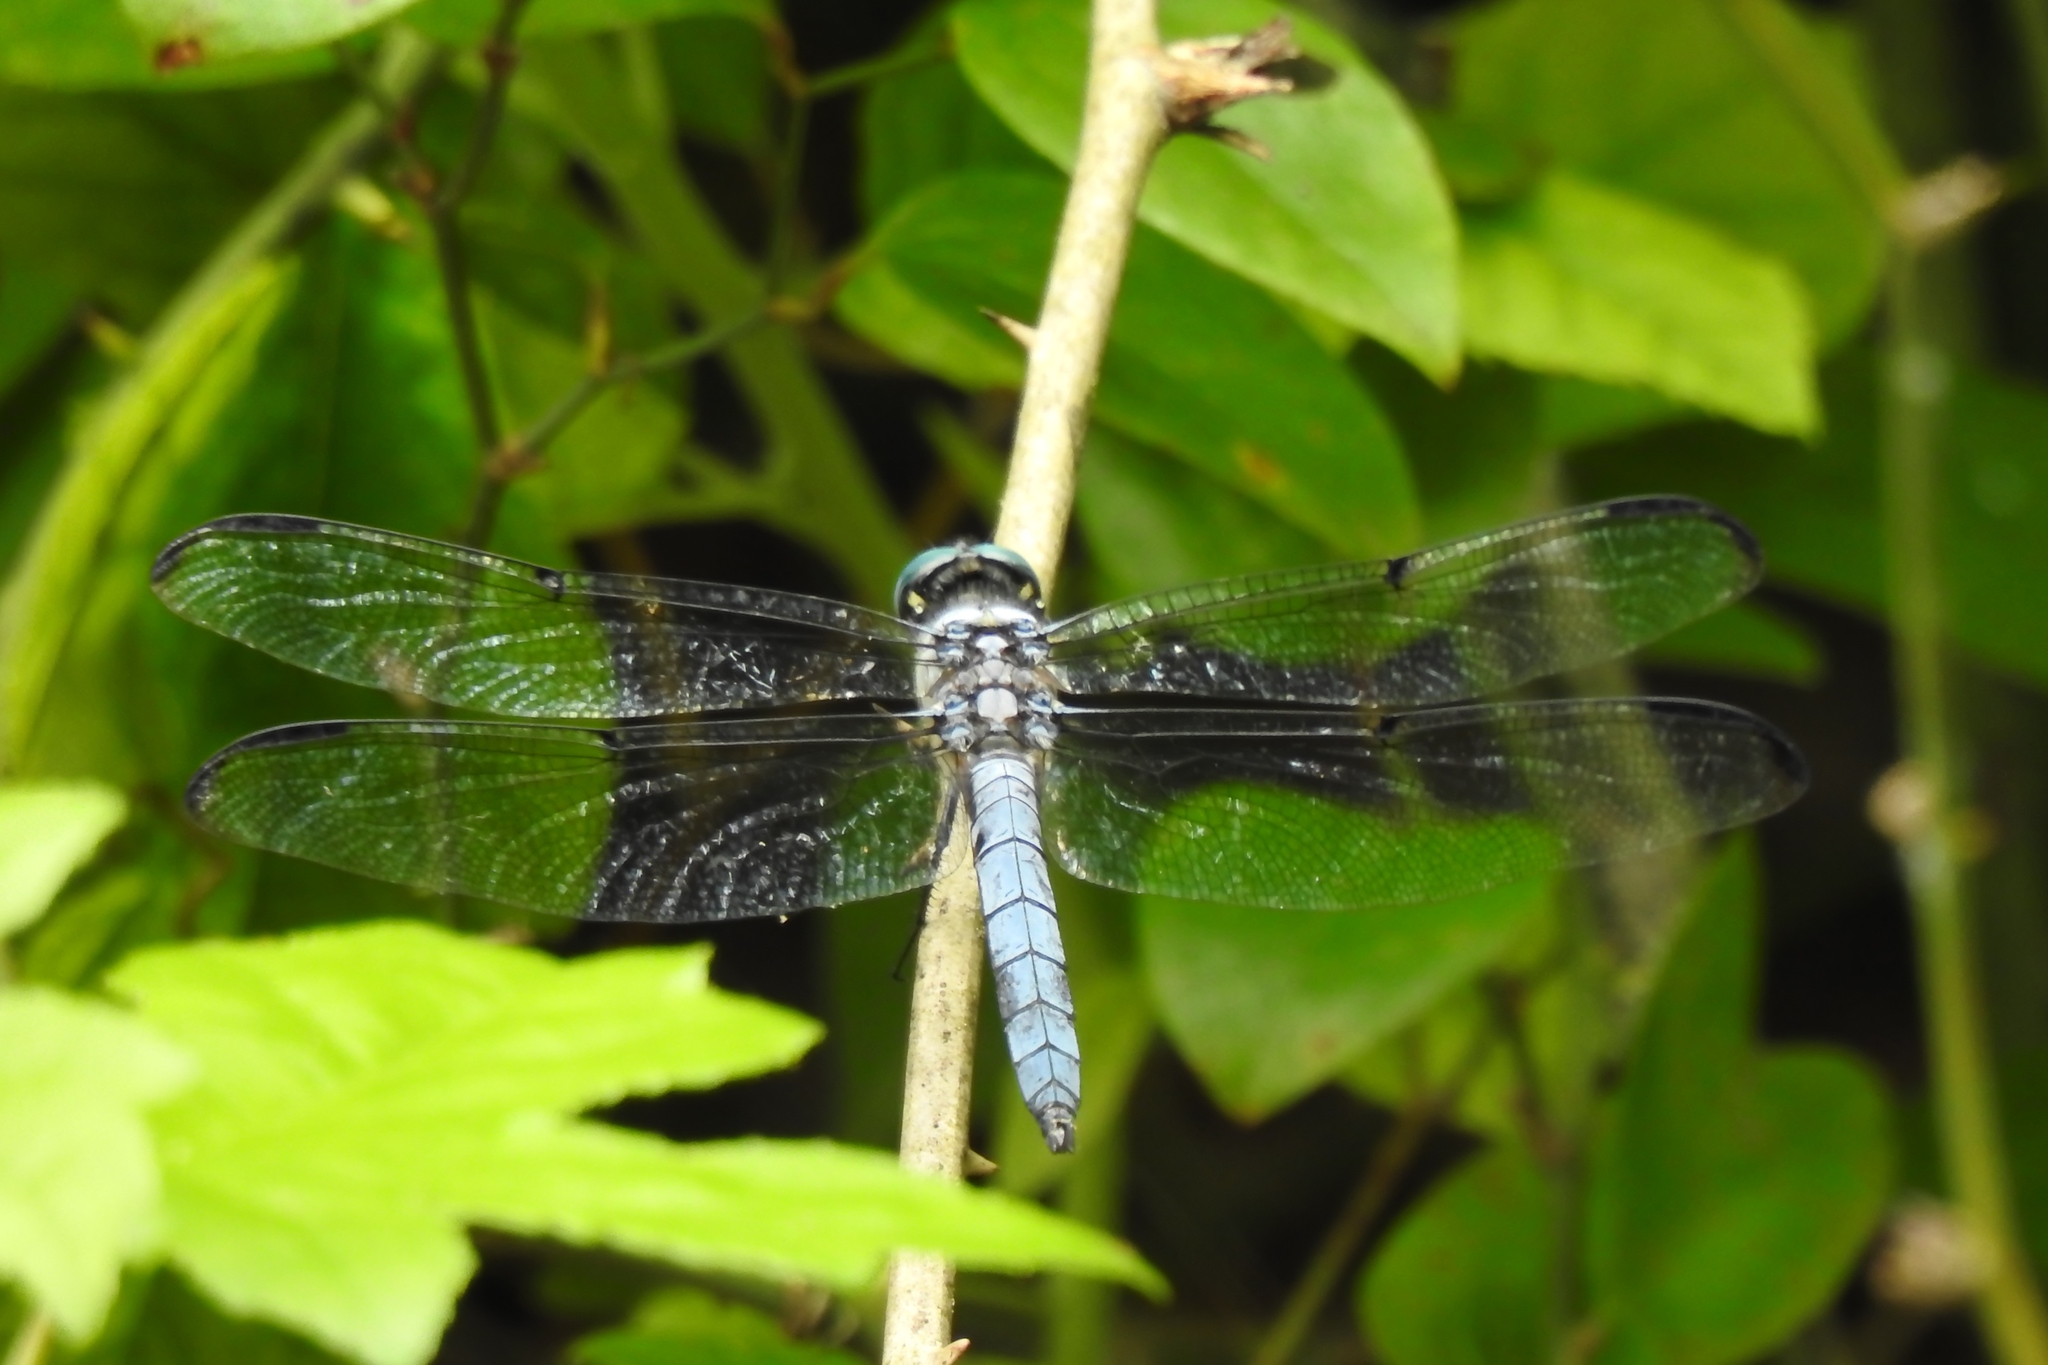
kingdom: Animalia
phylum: Arthropoda
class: Insecta
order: Odonata
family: Libellulidae
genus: Libellula
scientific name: Libellula vibrans
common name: Great blue skimmer
